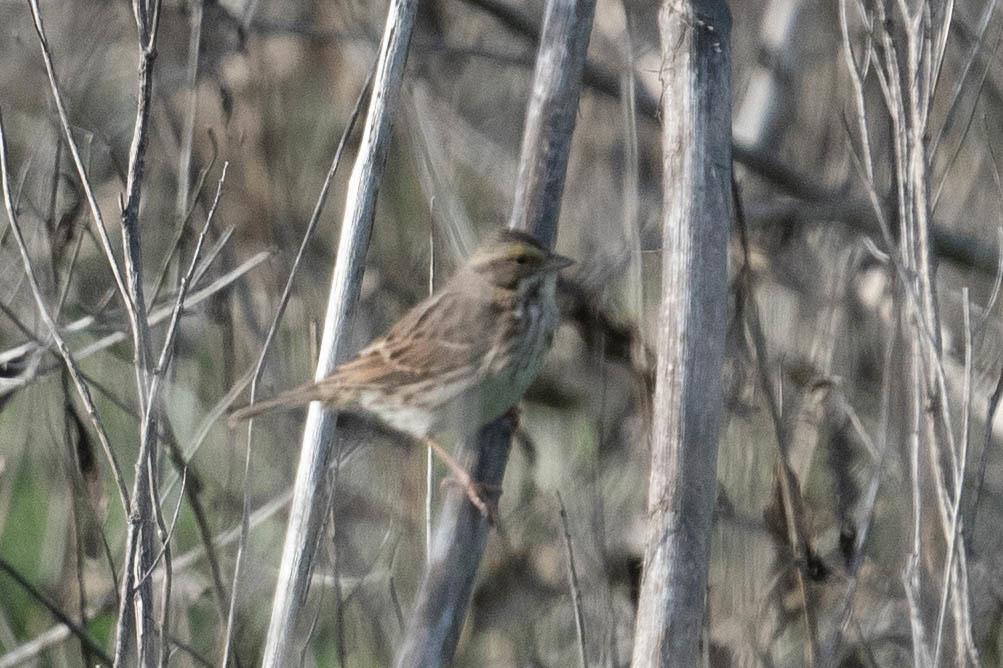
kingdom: Animalia
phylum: Chordata
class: Aves
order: Passeriformes
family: Passerellidae
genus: Passerculus
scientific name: Passerculus sandwichensis
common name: Savannah sparrow
